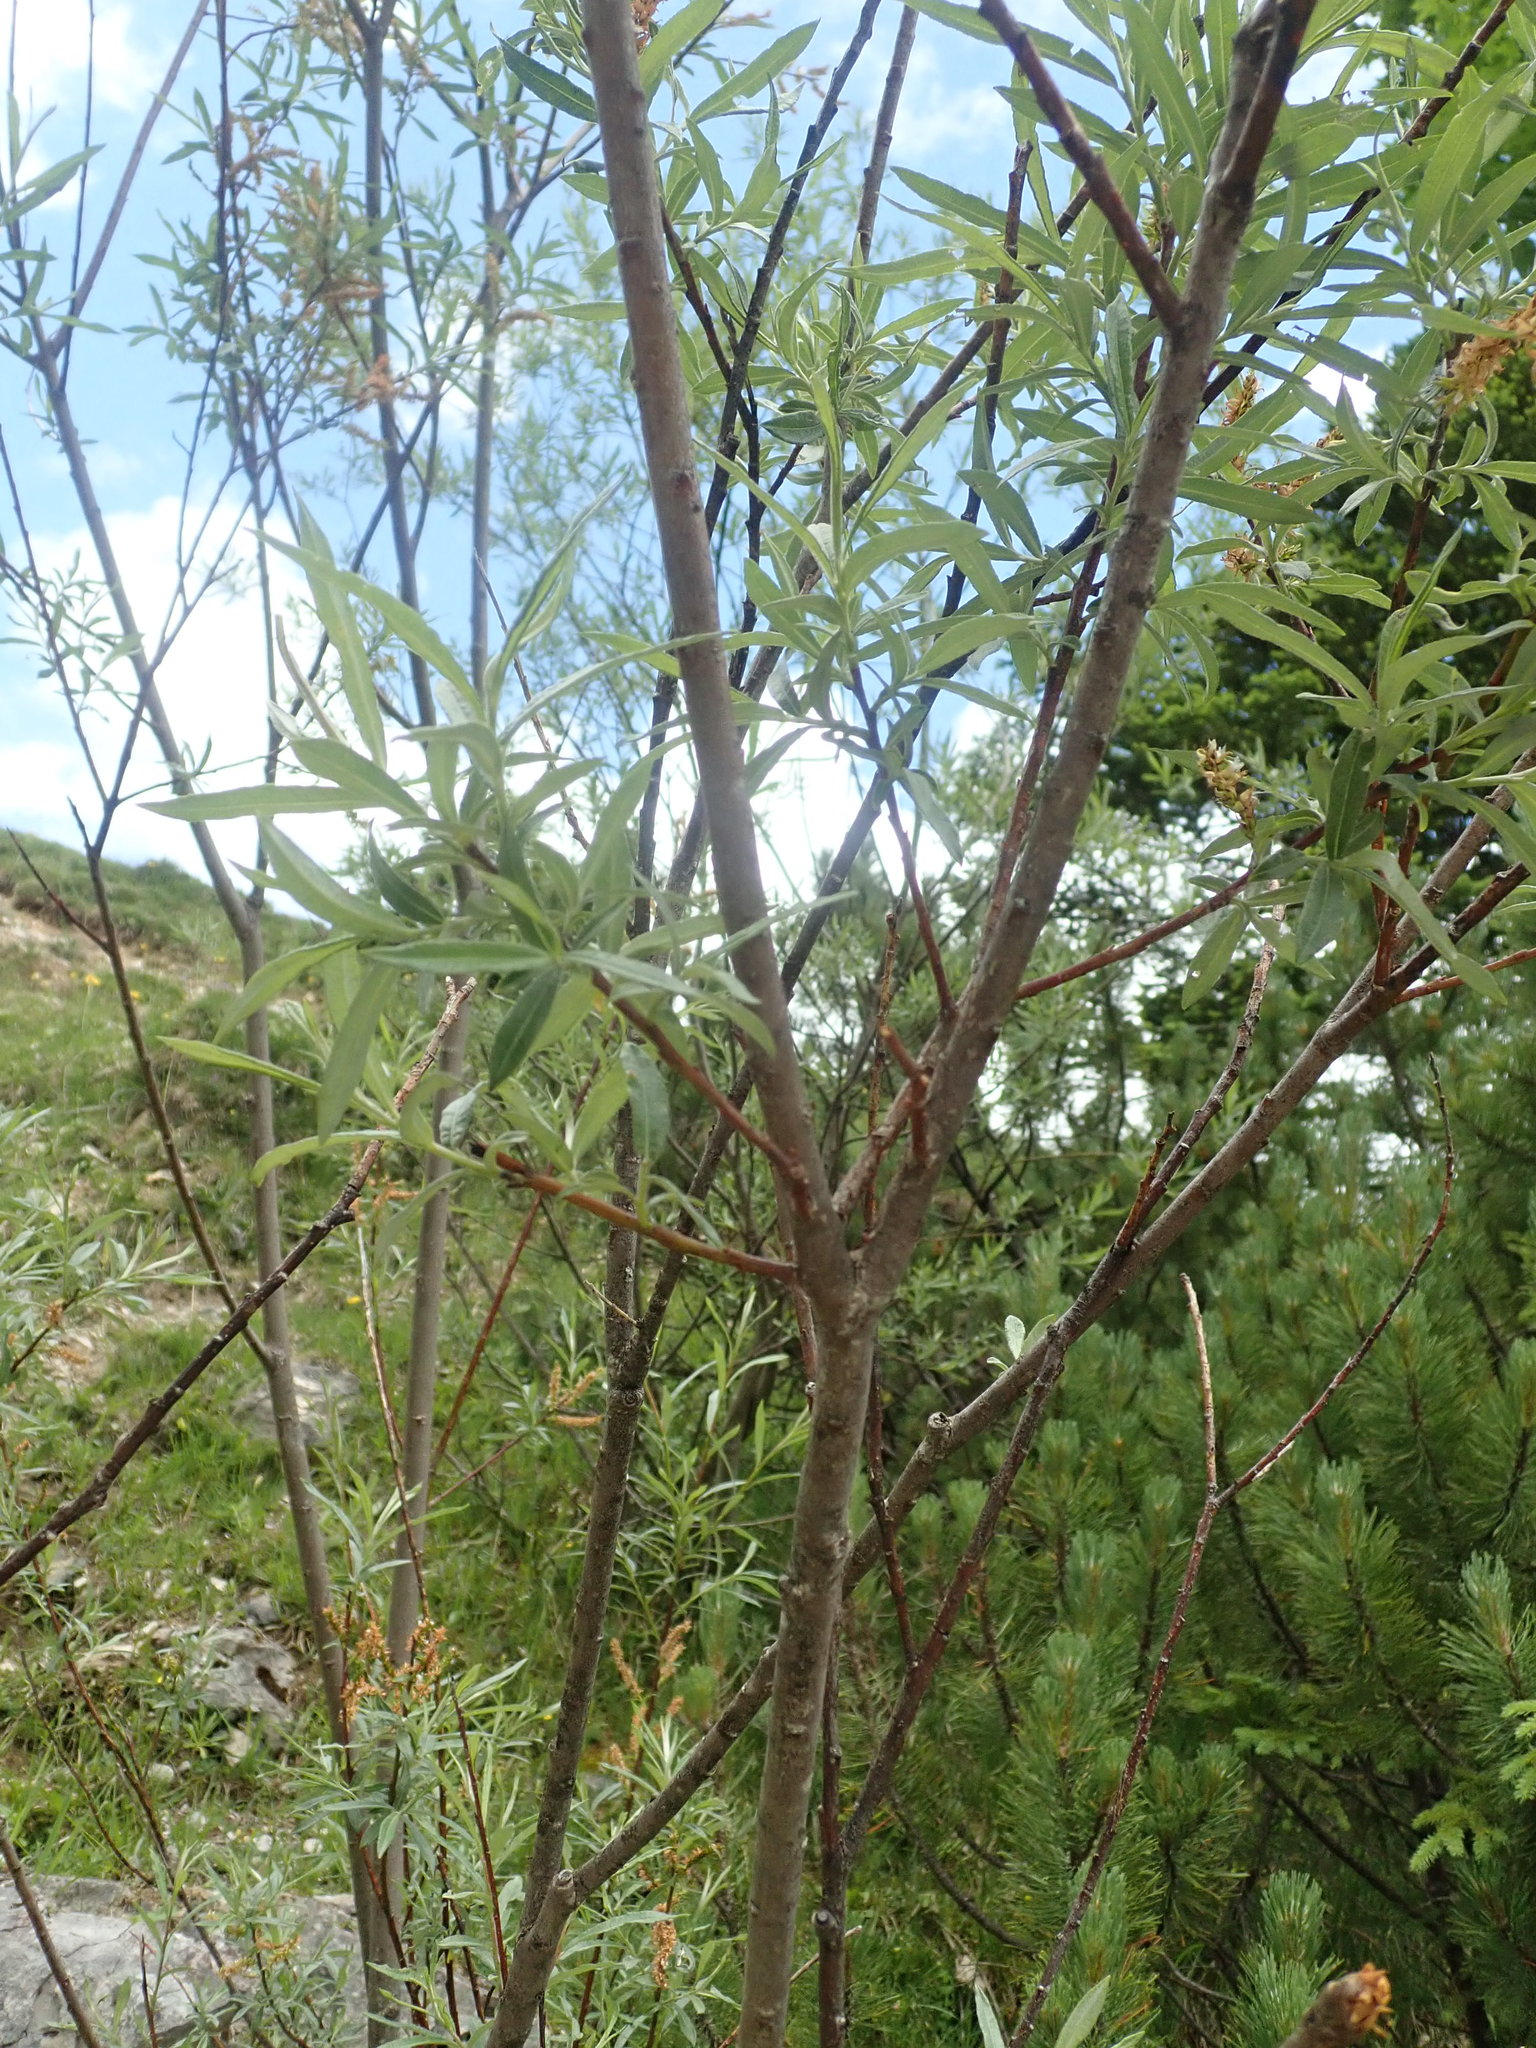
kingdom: Plantae
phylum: Tracheophyta
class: Magnoliopsida
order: Malpighiales
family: Salicaceae
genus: Salix
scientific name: Salix eleagnos
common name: Elaeagnus willow
